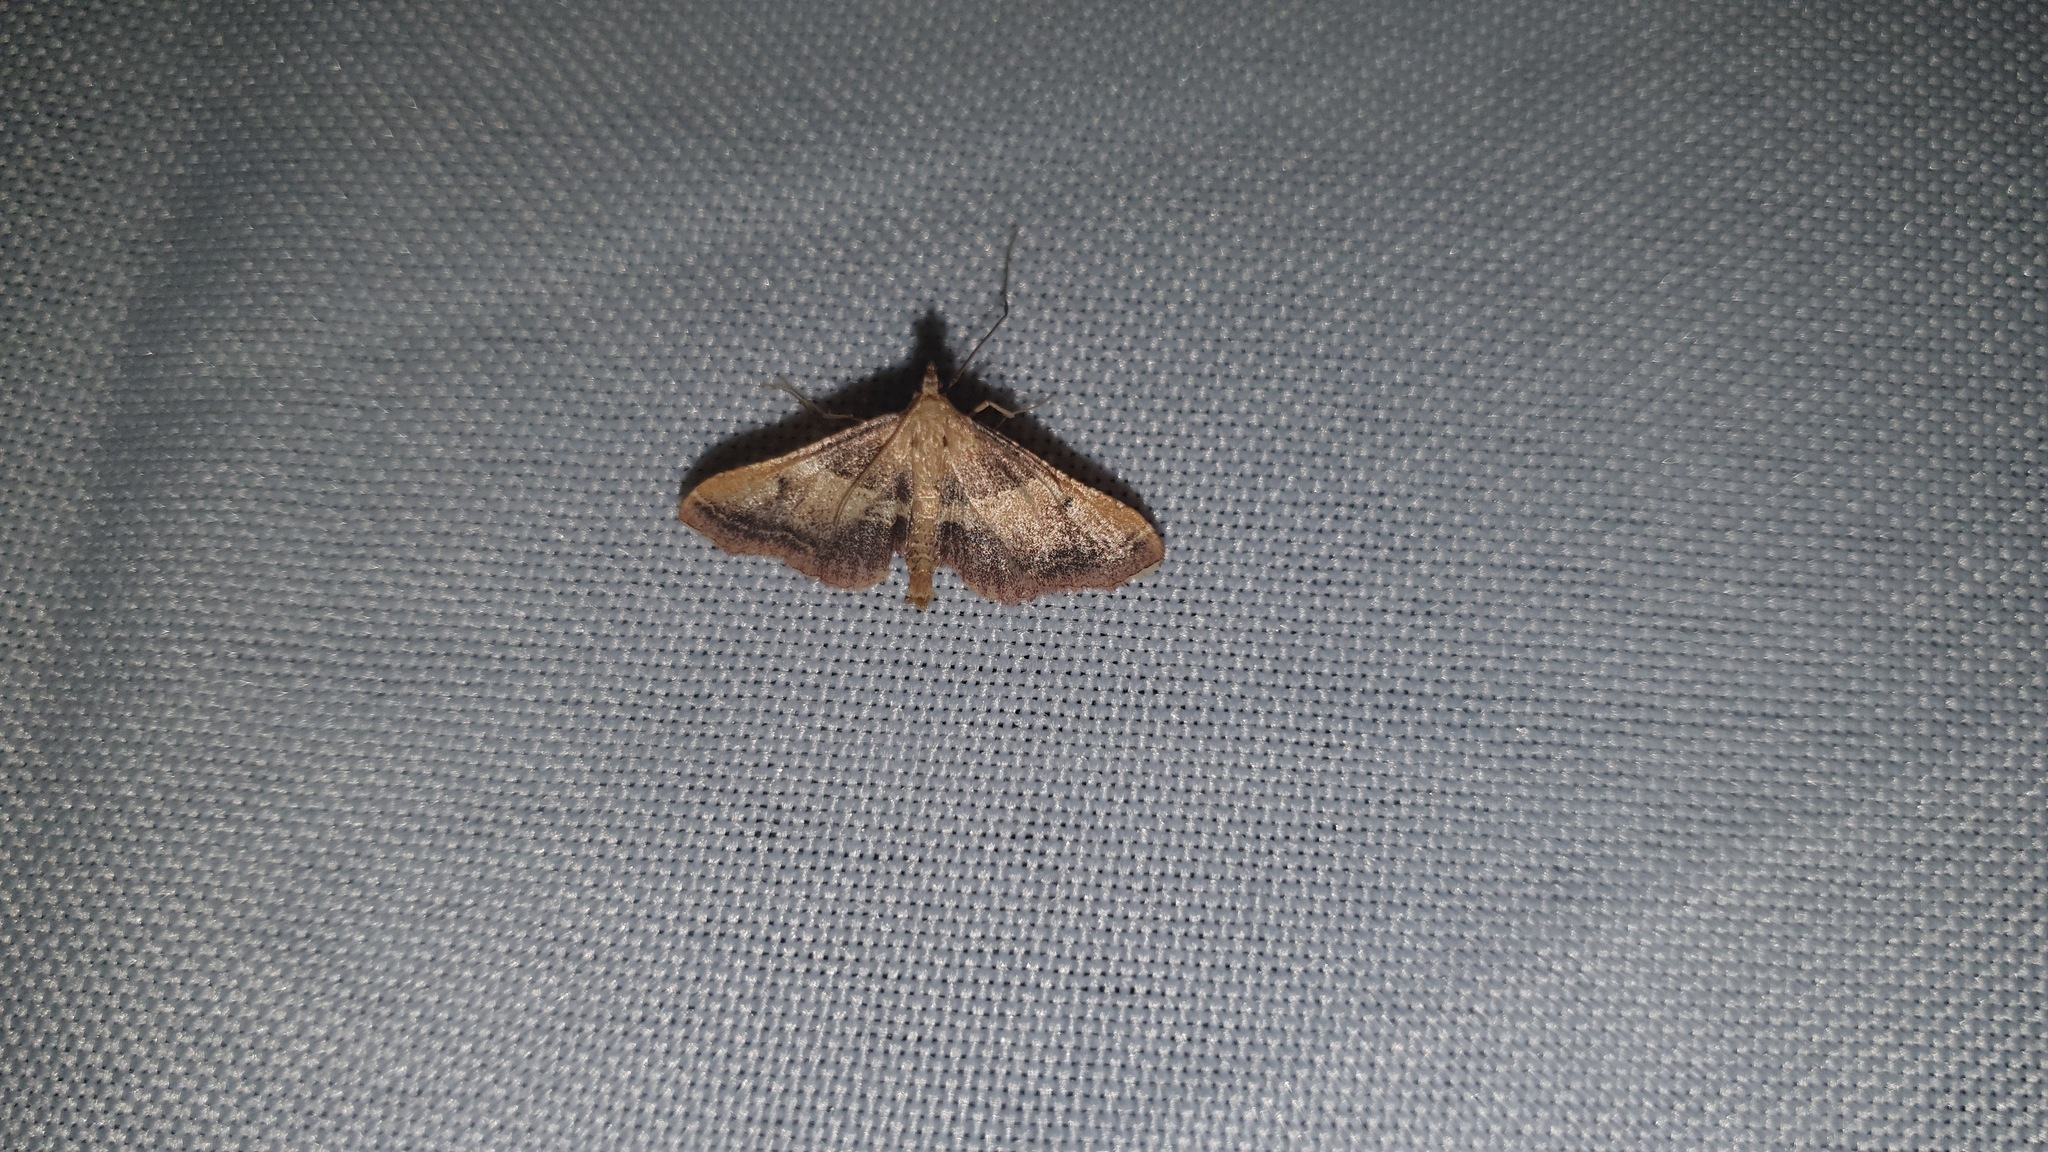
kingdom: Animalia
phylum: Arthropoda
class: Insecta
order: Lepidoptera
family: Pyralidae
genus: Endotricha
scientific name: Endotricha flammealis
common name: Rosy tabby
